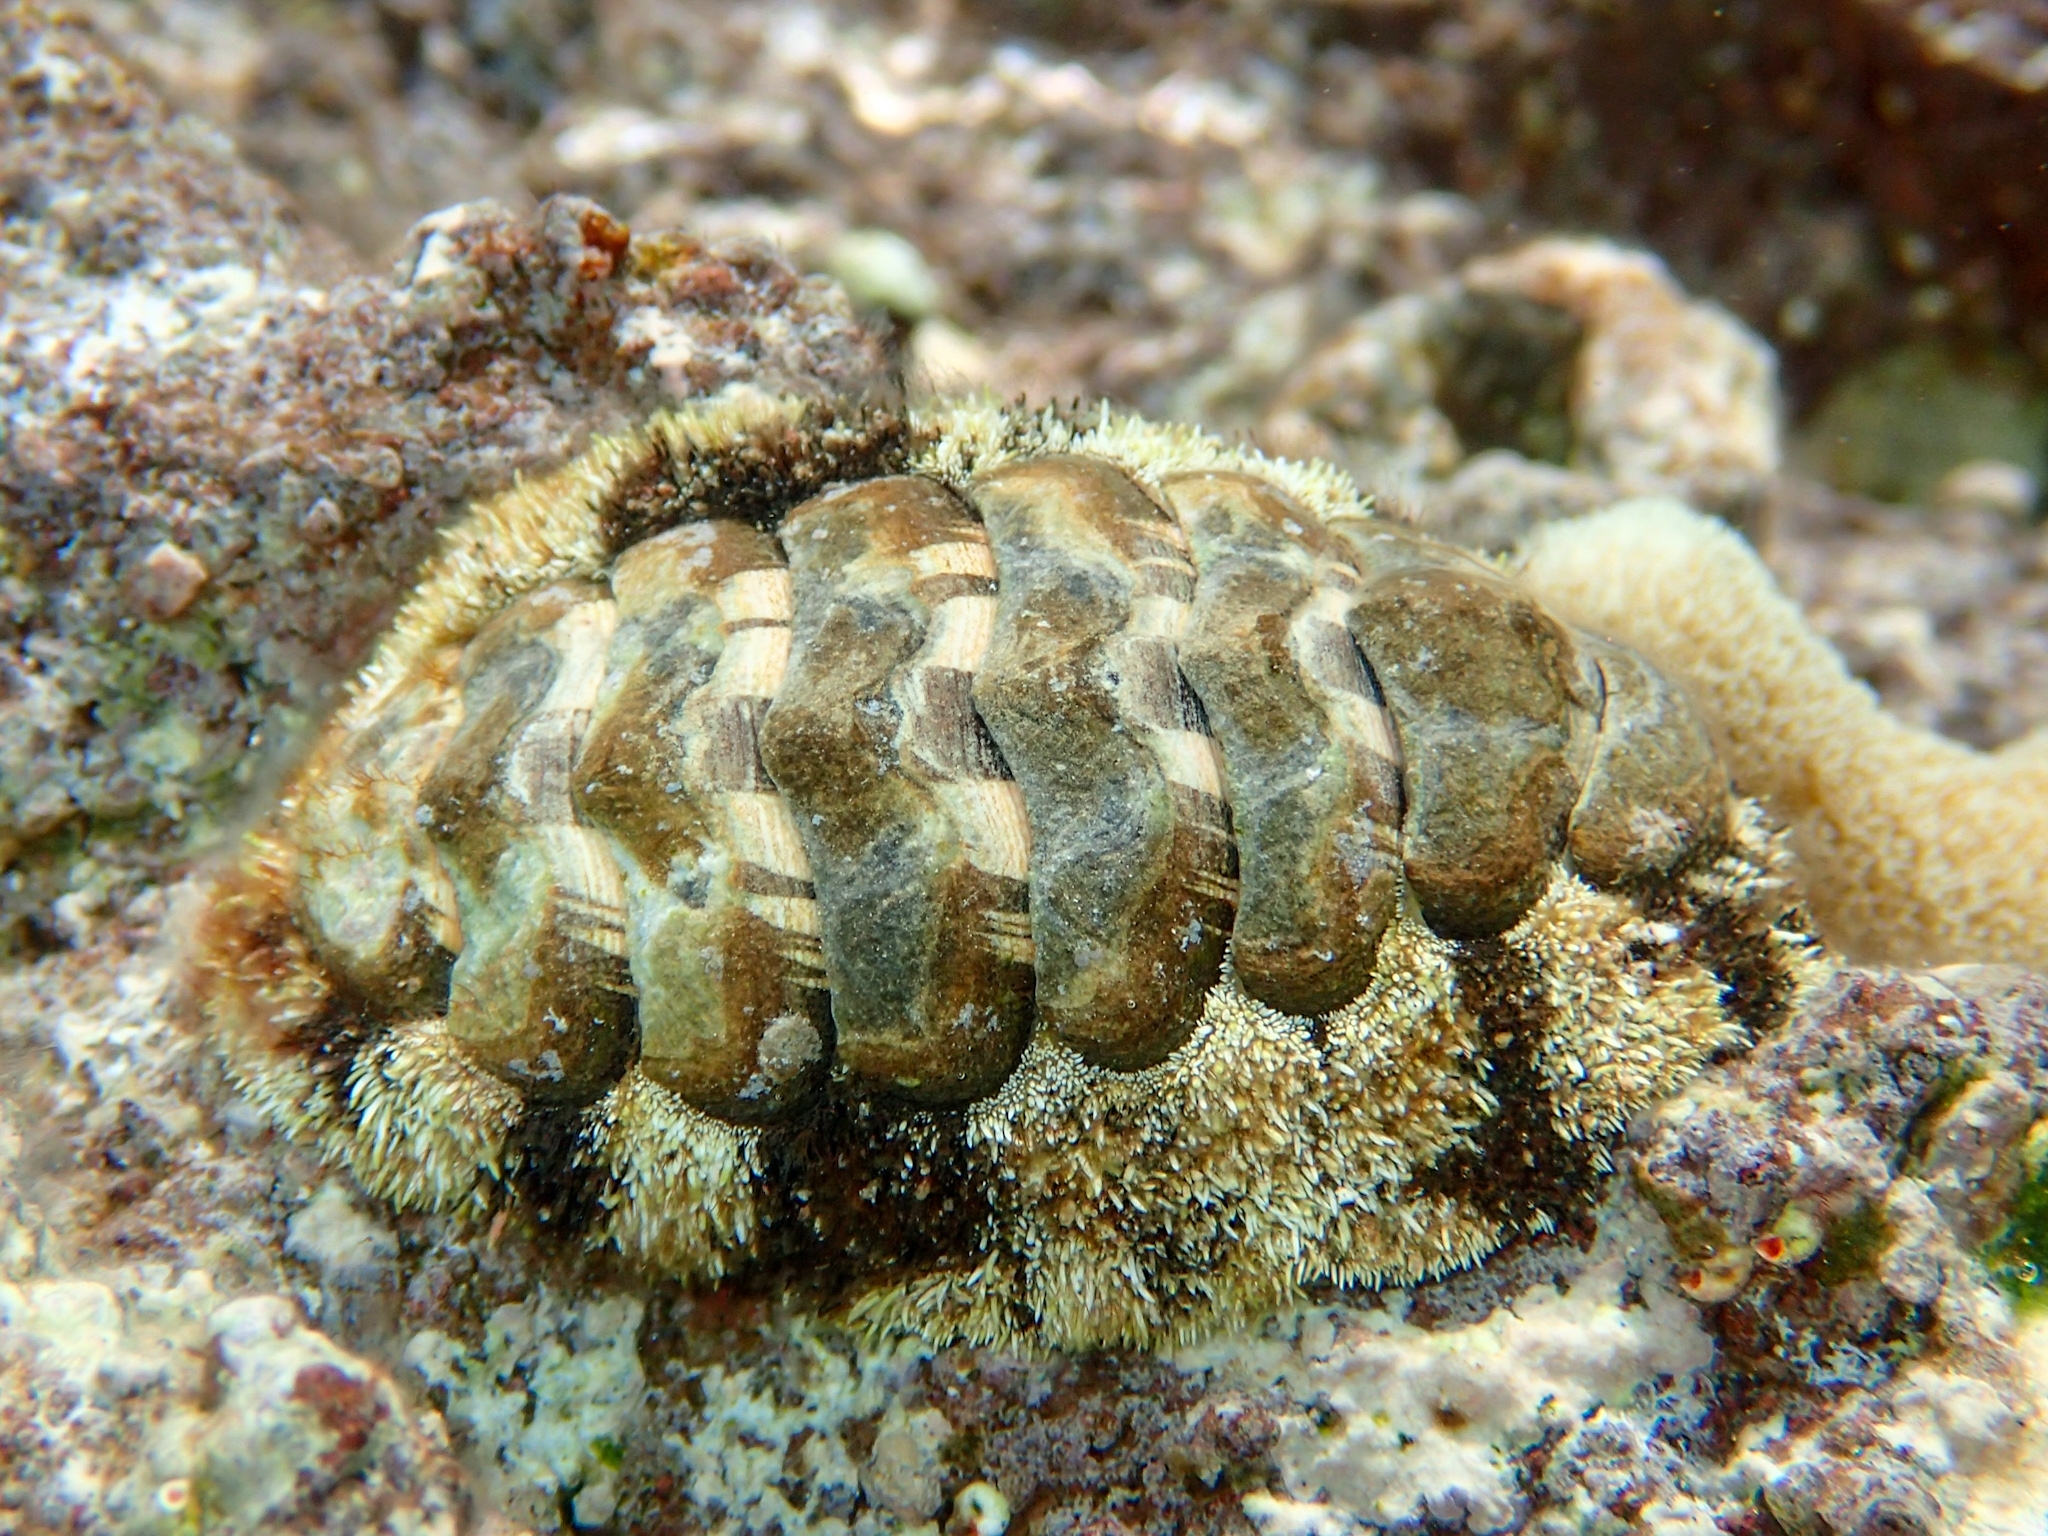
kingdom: Animalia
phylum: Mollusca
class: Polyplacophora
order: Chitonida
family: Chitonidae
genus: Acanthopleura
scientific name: Acanthopleura granulata
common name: West indian fuzzy chiton
